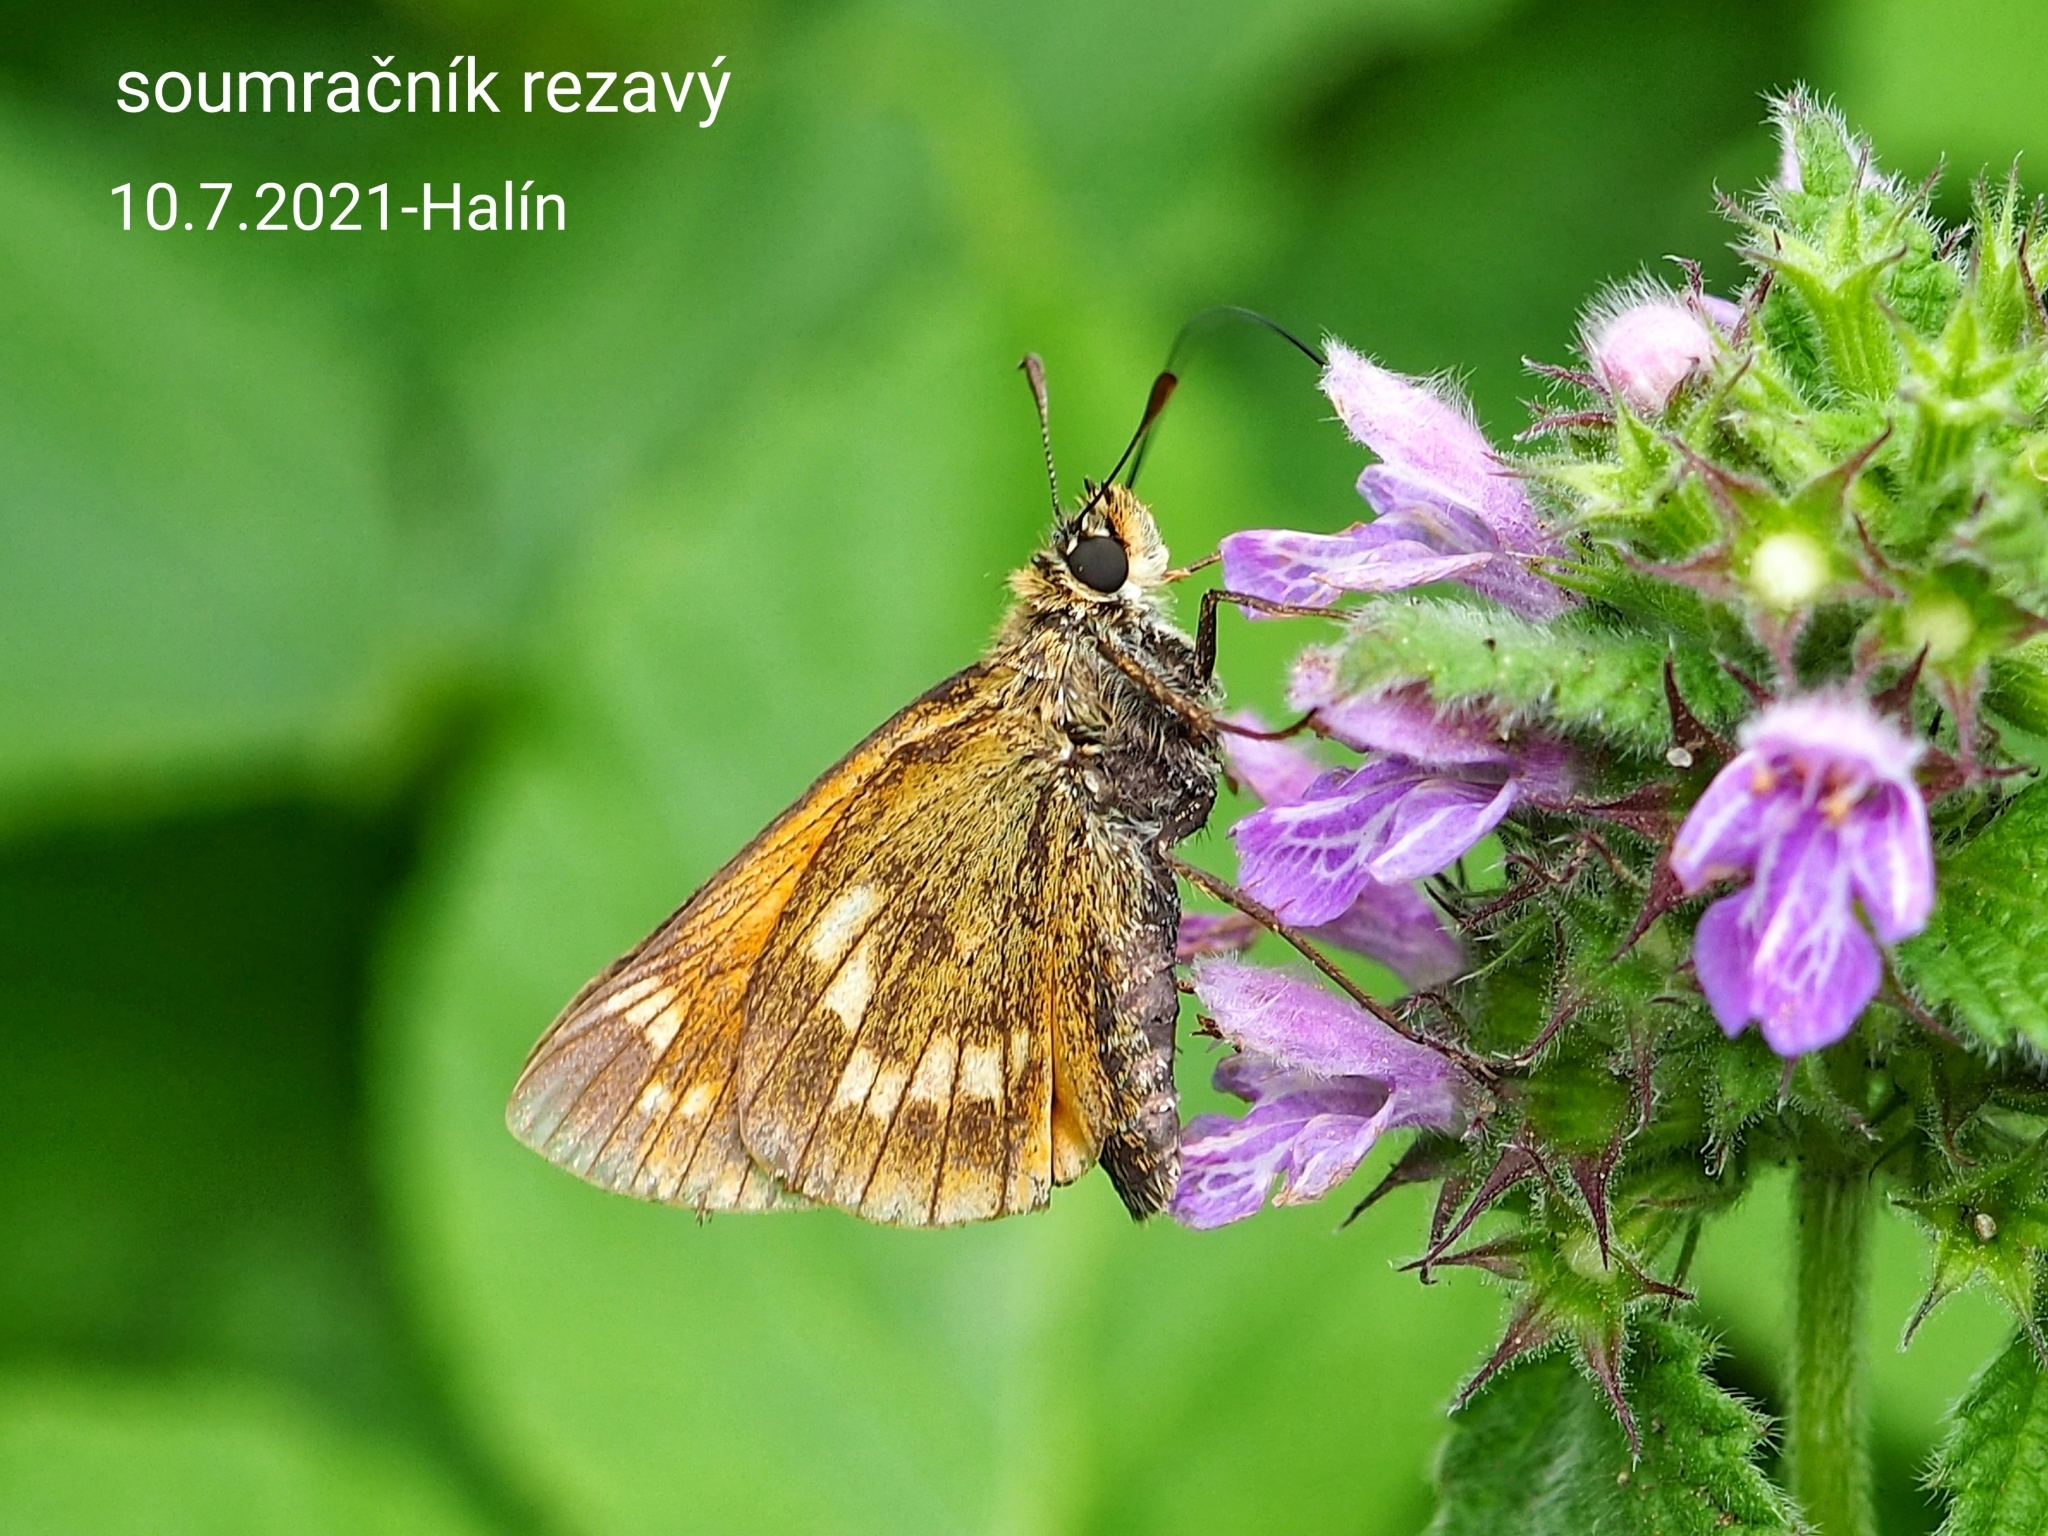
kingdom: Animalia
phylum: Arthropoda
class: Insecta
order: Lepidoptera
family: Hesperiidae
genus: Ochlodes
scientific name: Ochlodes venata
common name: Large skipper
